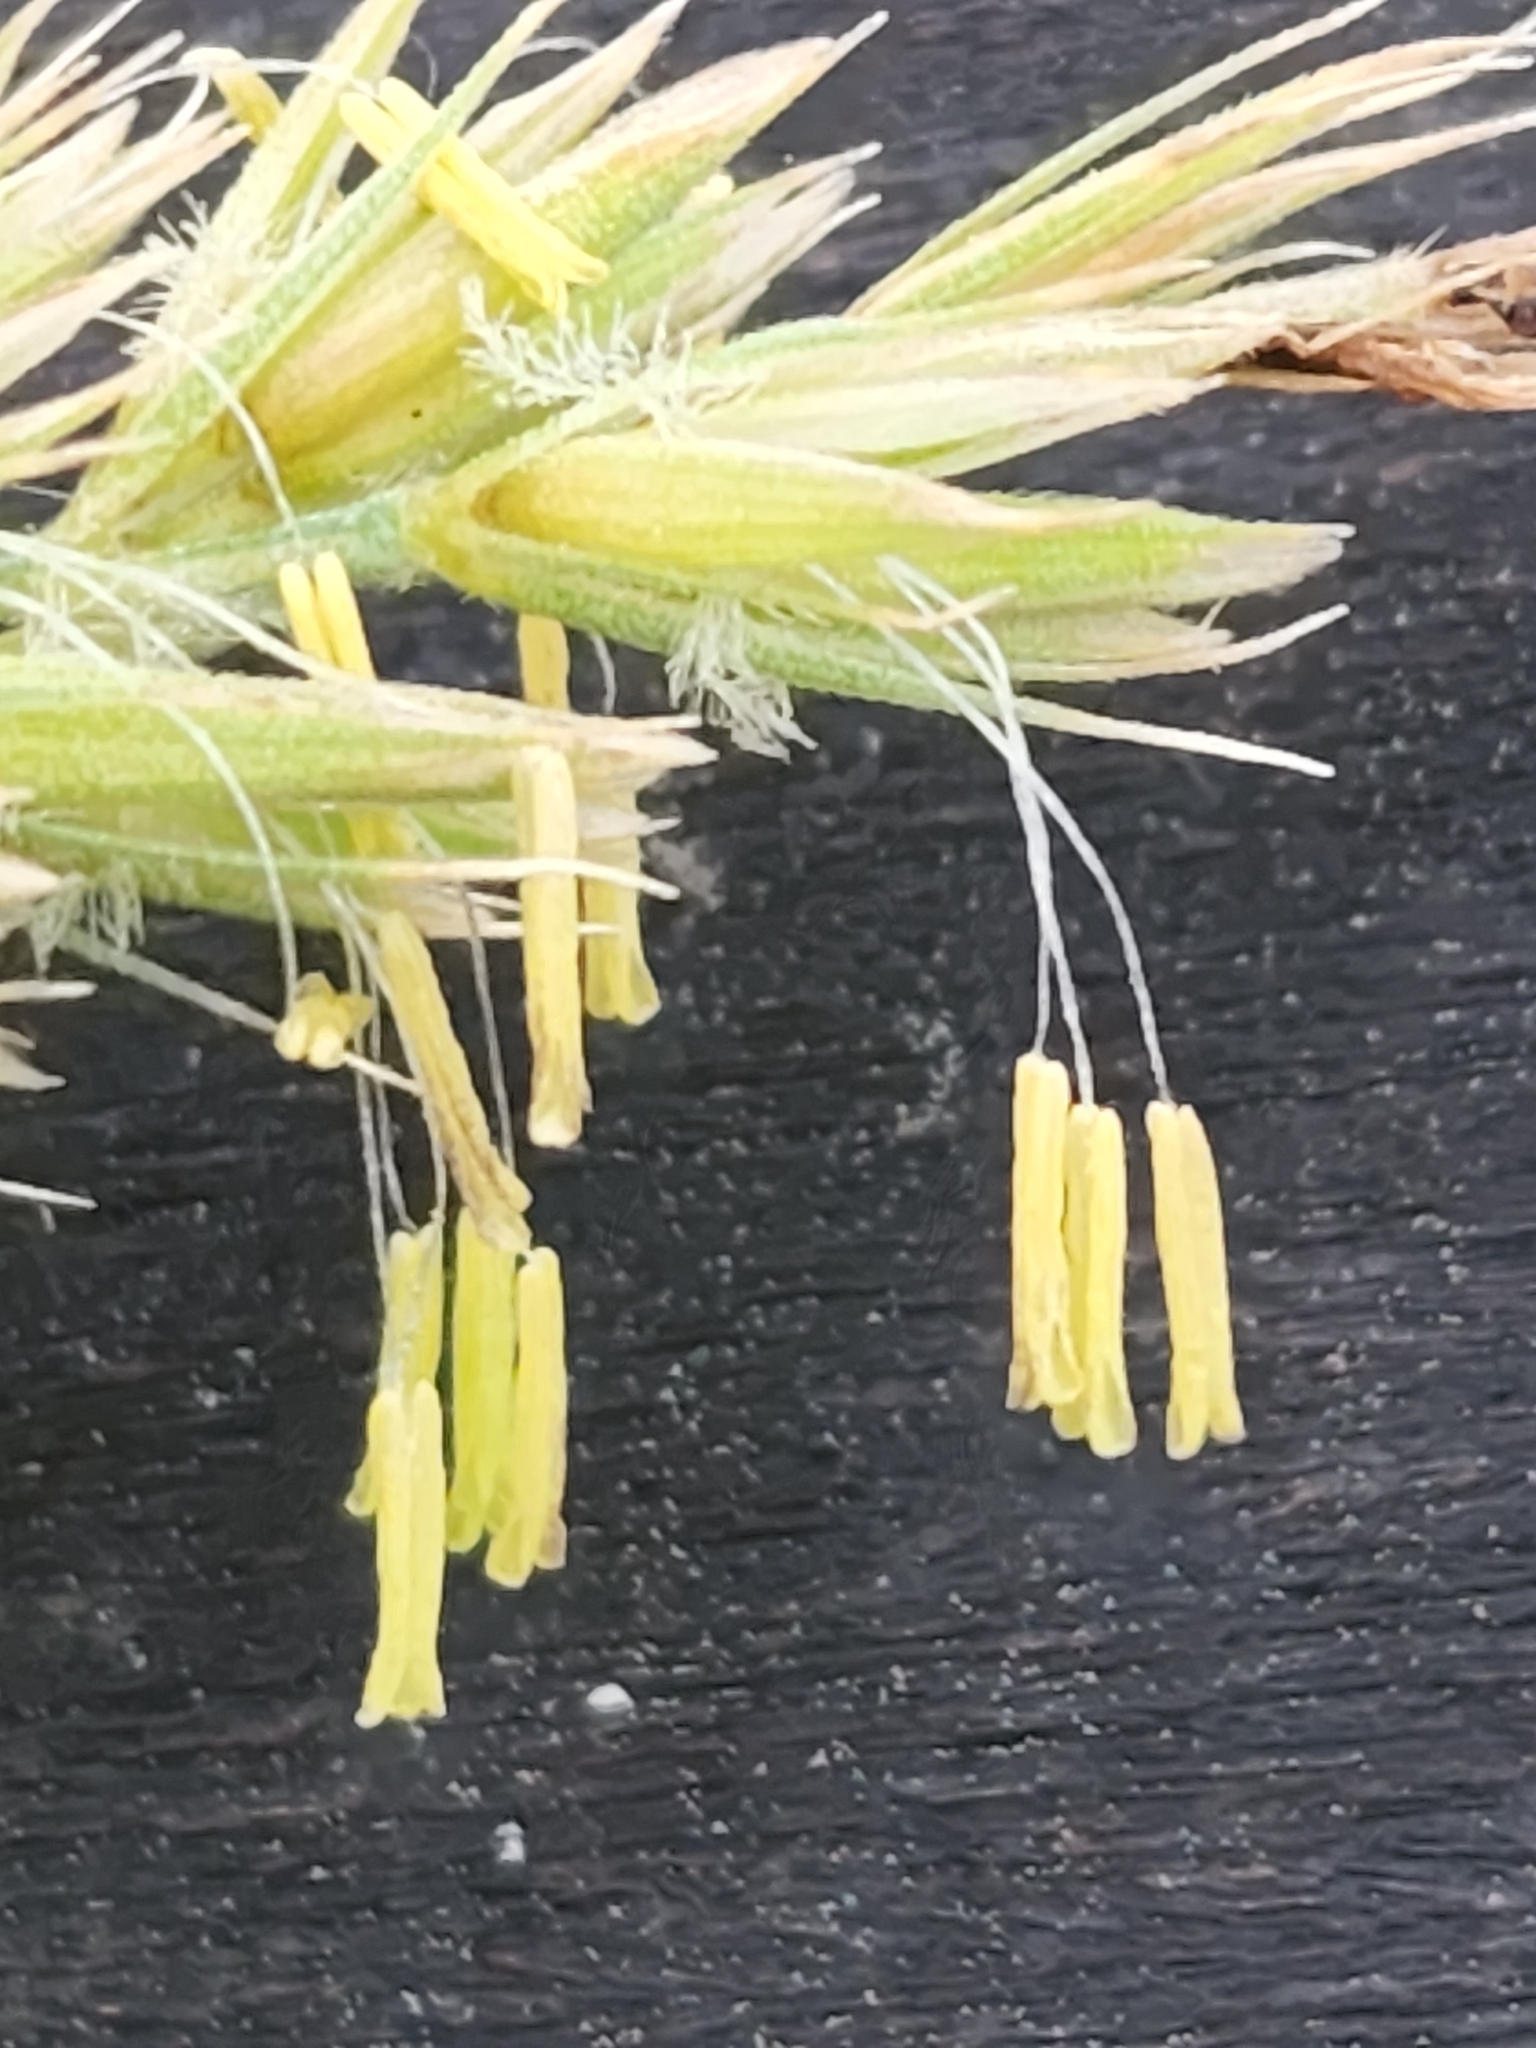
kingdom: Plantae
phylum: Tracheophyta
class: Liliopsida
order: Poales
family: Poaceae
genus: Koeleria
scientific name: Koeleria macrantha
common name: Crested hair-grass
